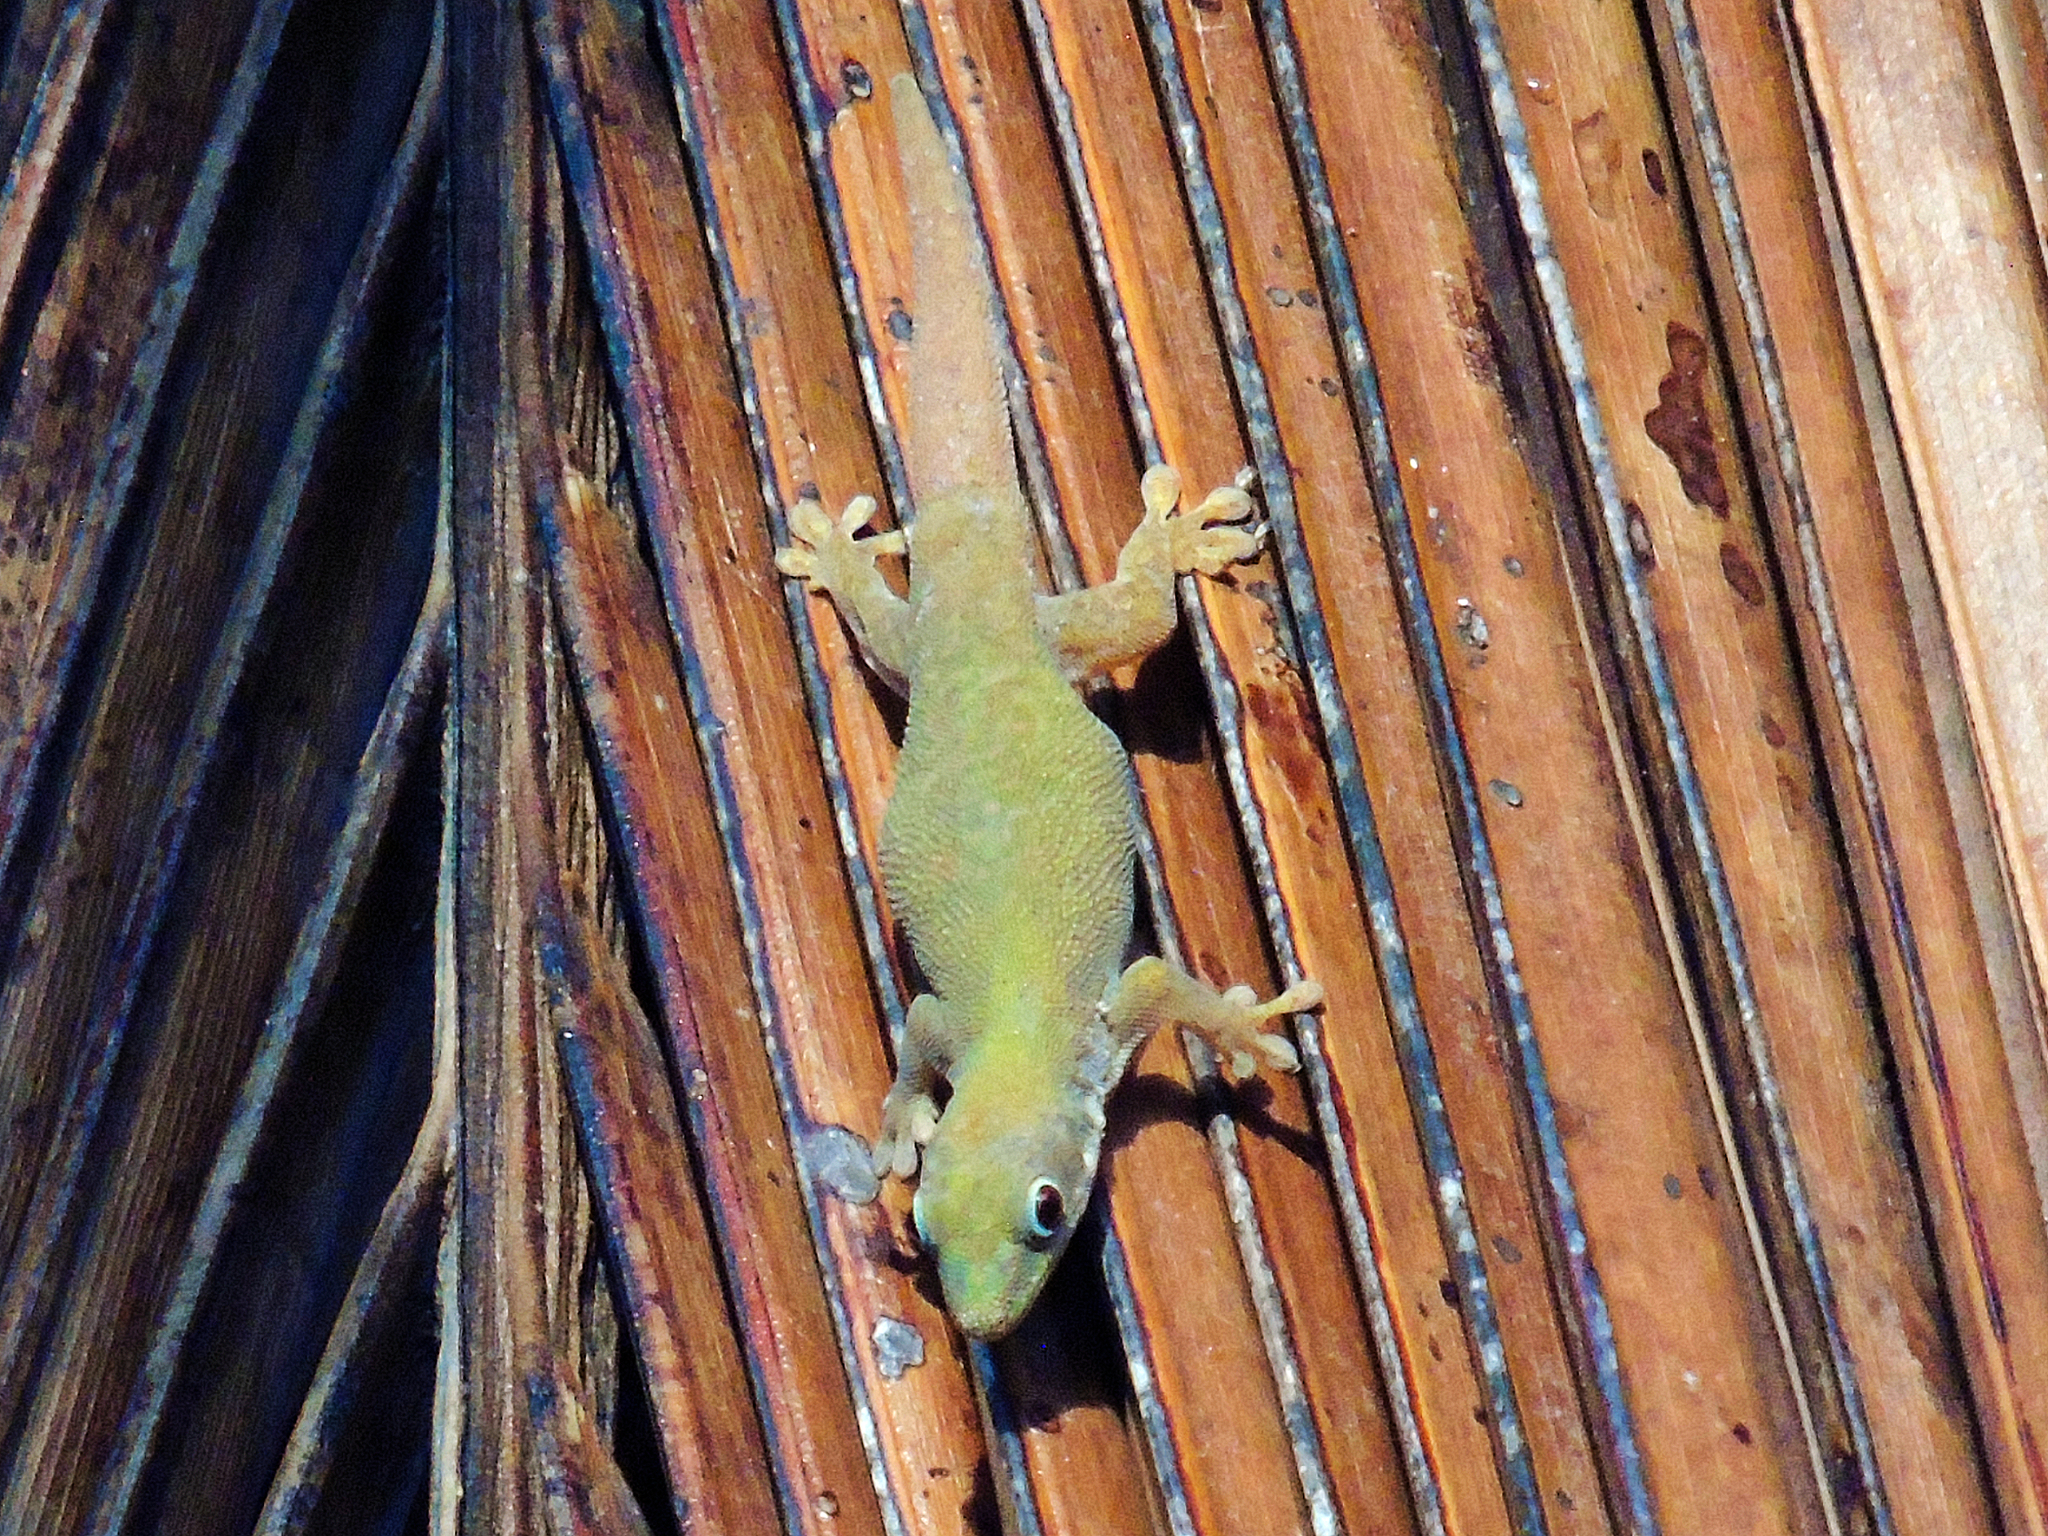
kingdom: Animalia
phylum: Chordata
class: Squamata
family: Gekkonidae
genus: Phelsuma
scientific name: Phelsuma dubia
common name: Zanzibar day gecko
